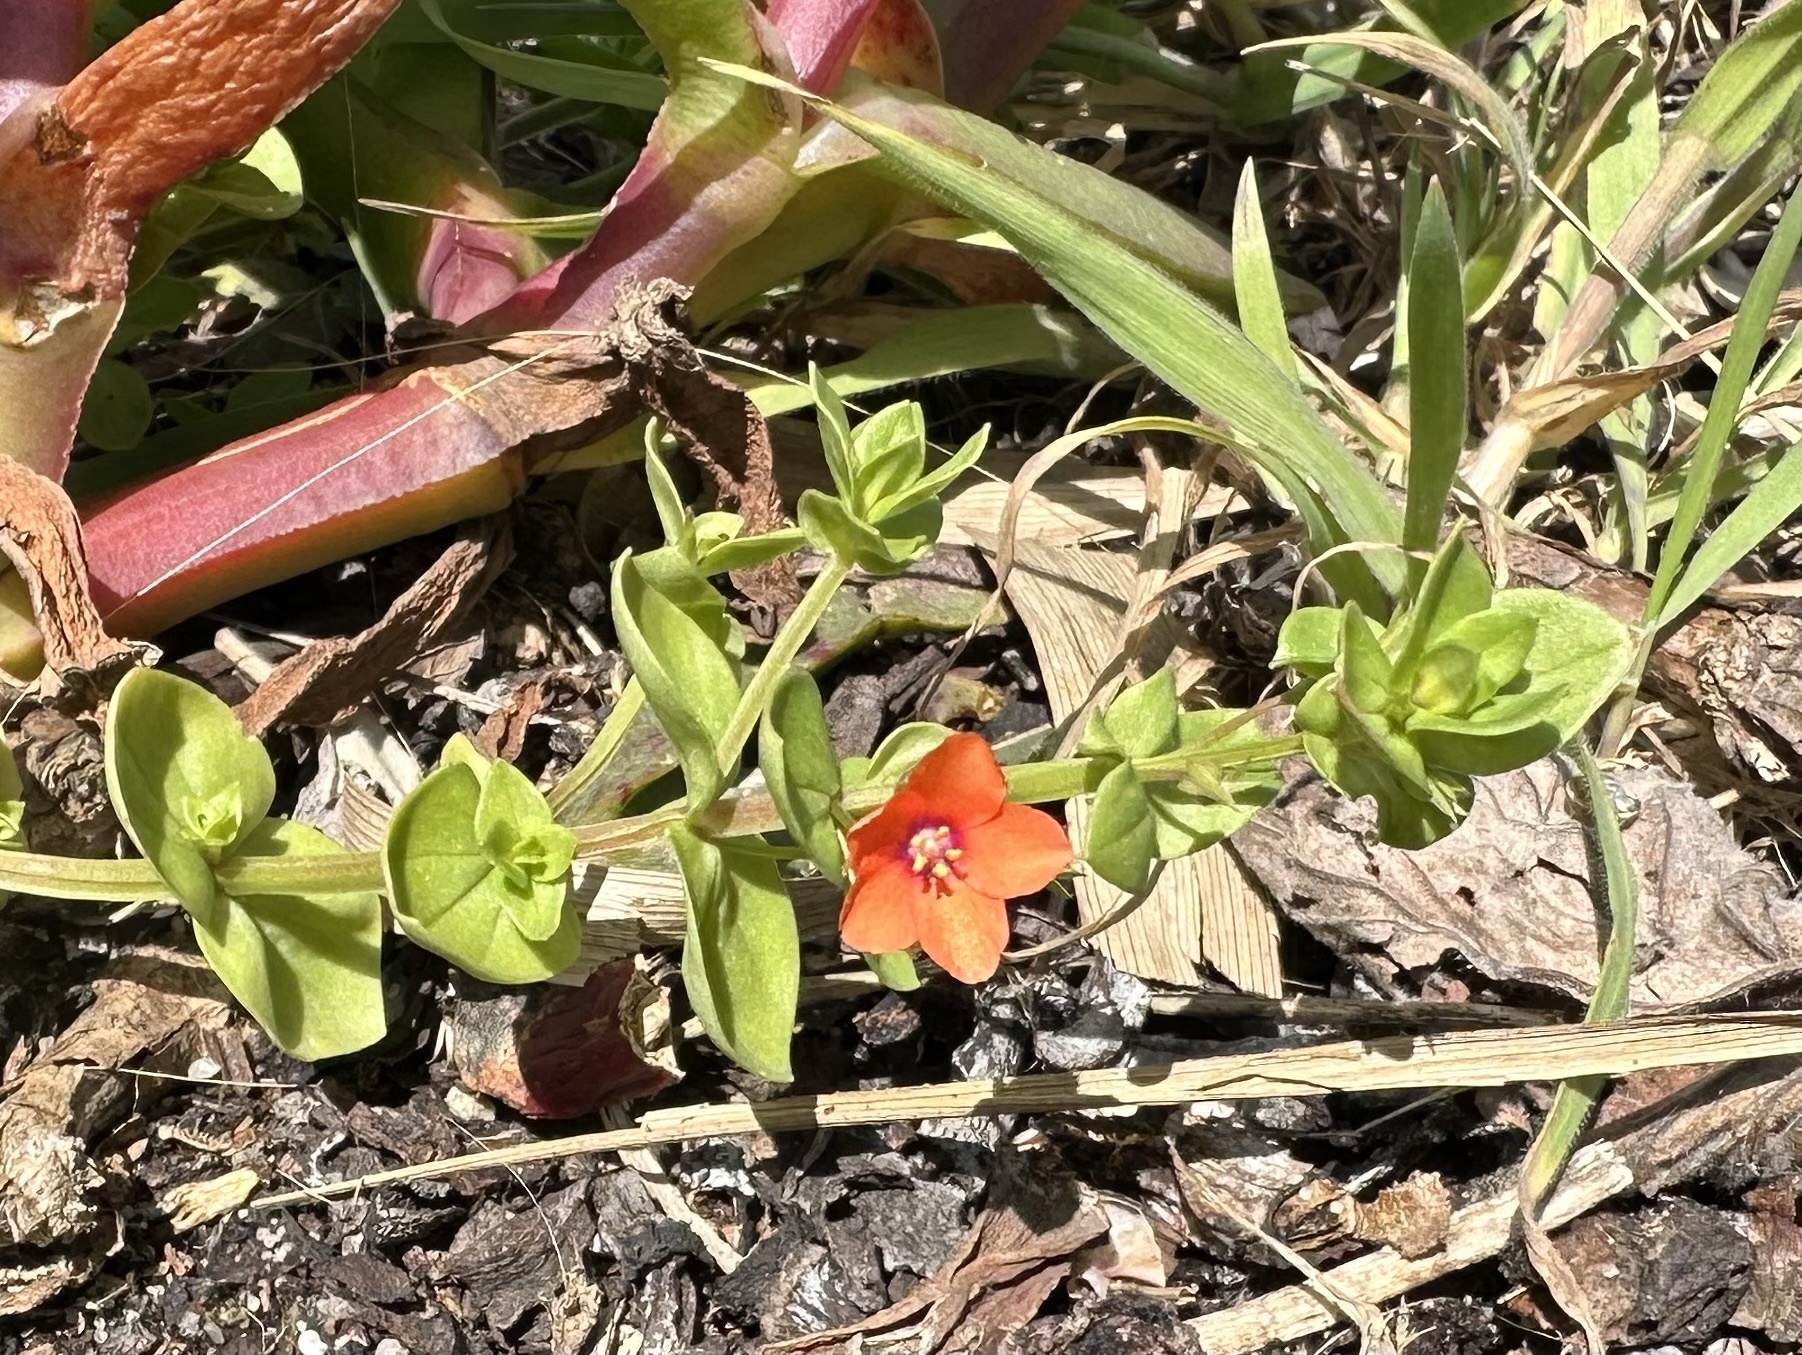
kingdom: Plantae
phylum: Tracheophyta
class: Magnoliopsida
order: Ericales
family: Primulaceae
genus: Lysimachia
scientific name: Lysimachia arvensis
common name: Scarlet pimpernel
